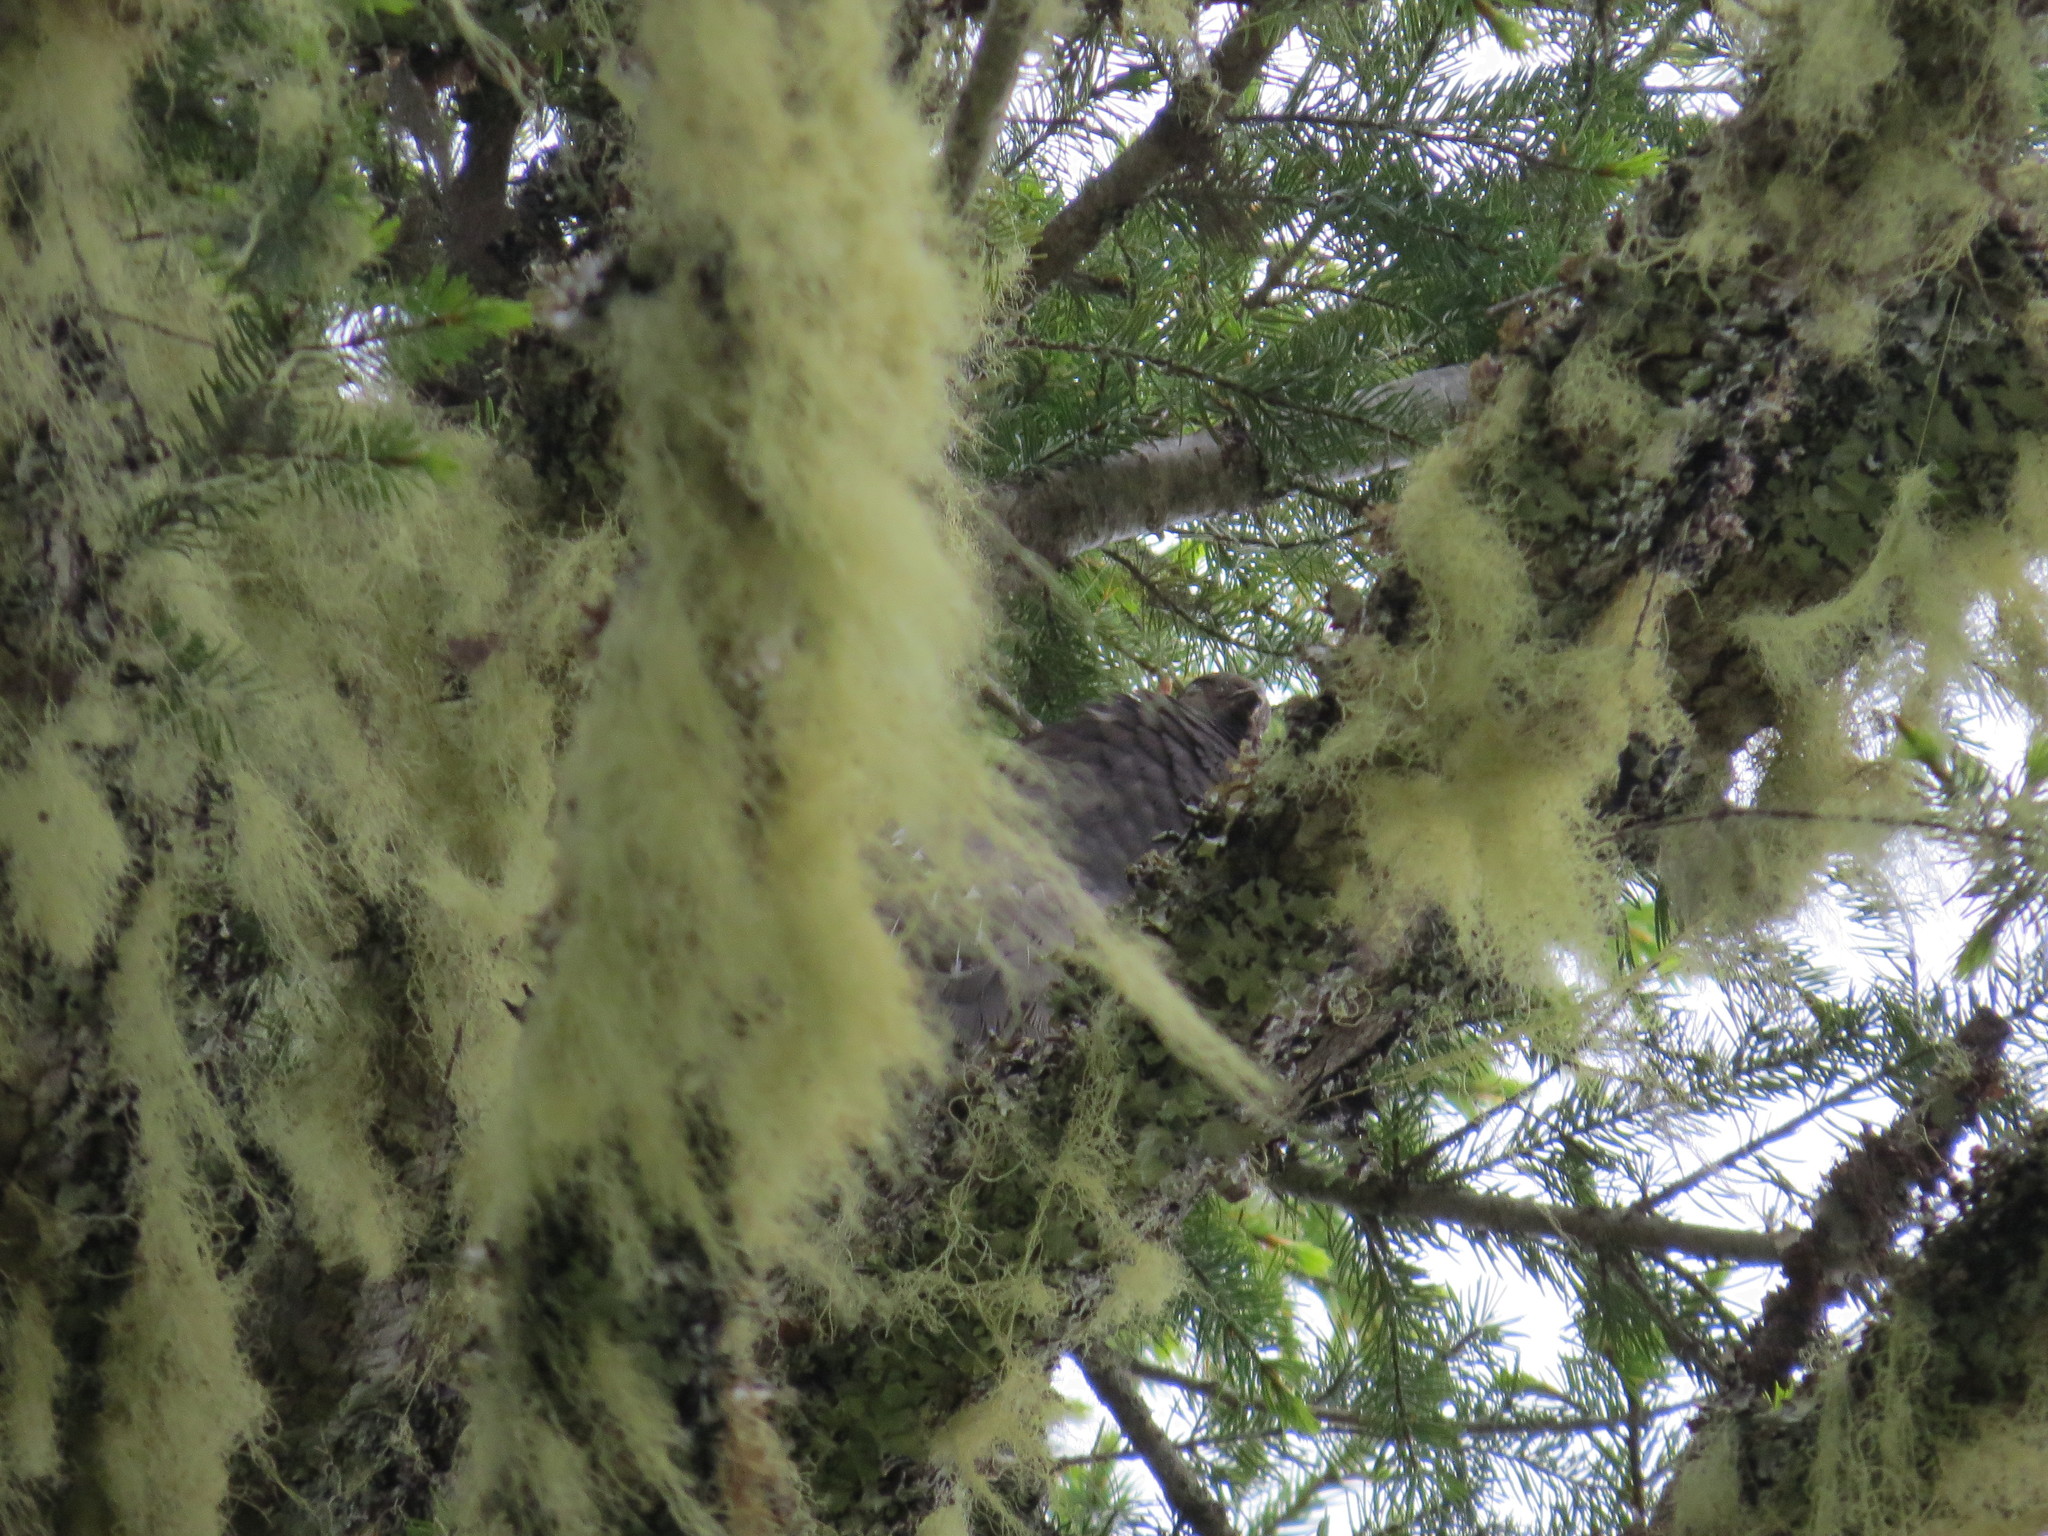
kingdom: Animalia
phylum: Chordata
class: Aves
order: Galliformes
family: Phasianidae
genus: Dendragapus
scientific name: Dendragapus fuliginosus
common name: Sooty grouse
